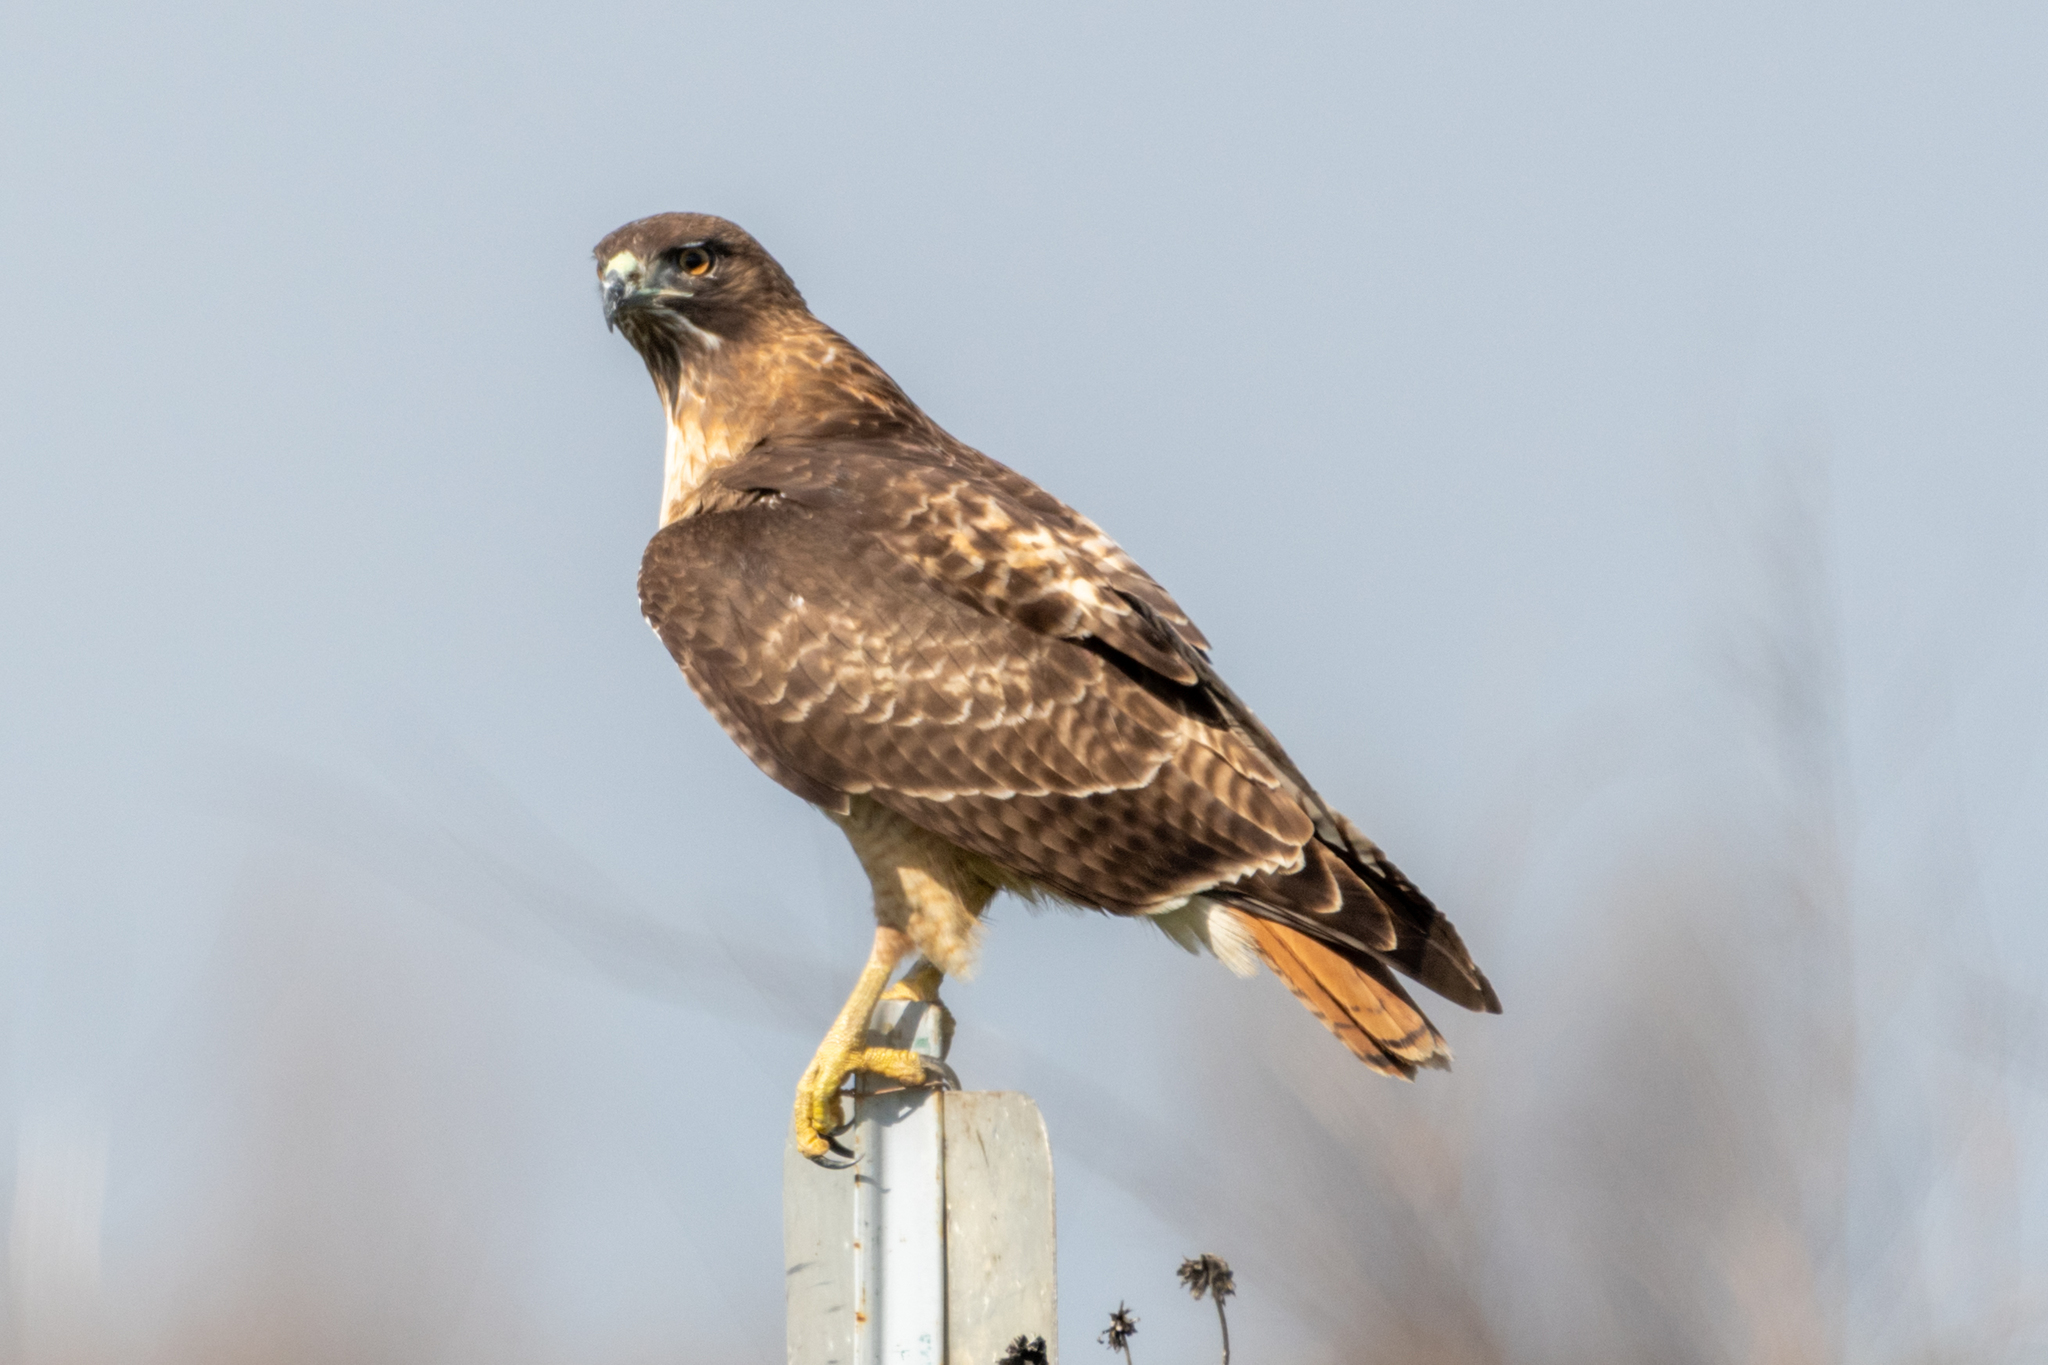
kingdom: Animalia
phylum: Chordata
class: Aves
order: Accipitriformes
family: Accipitridae
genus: Buteo
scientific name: Buteo jamaicensis
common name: Red-tailed hawk
